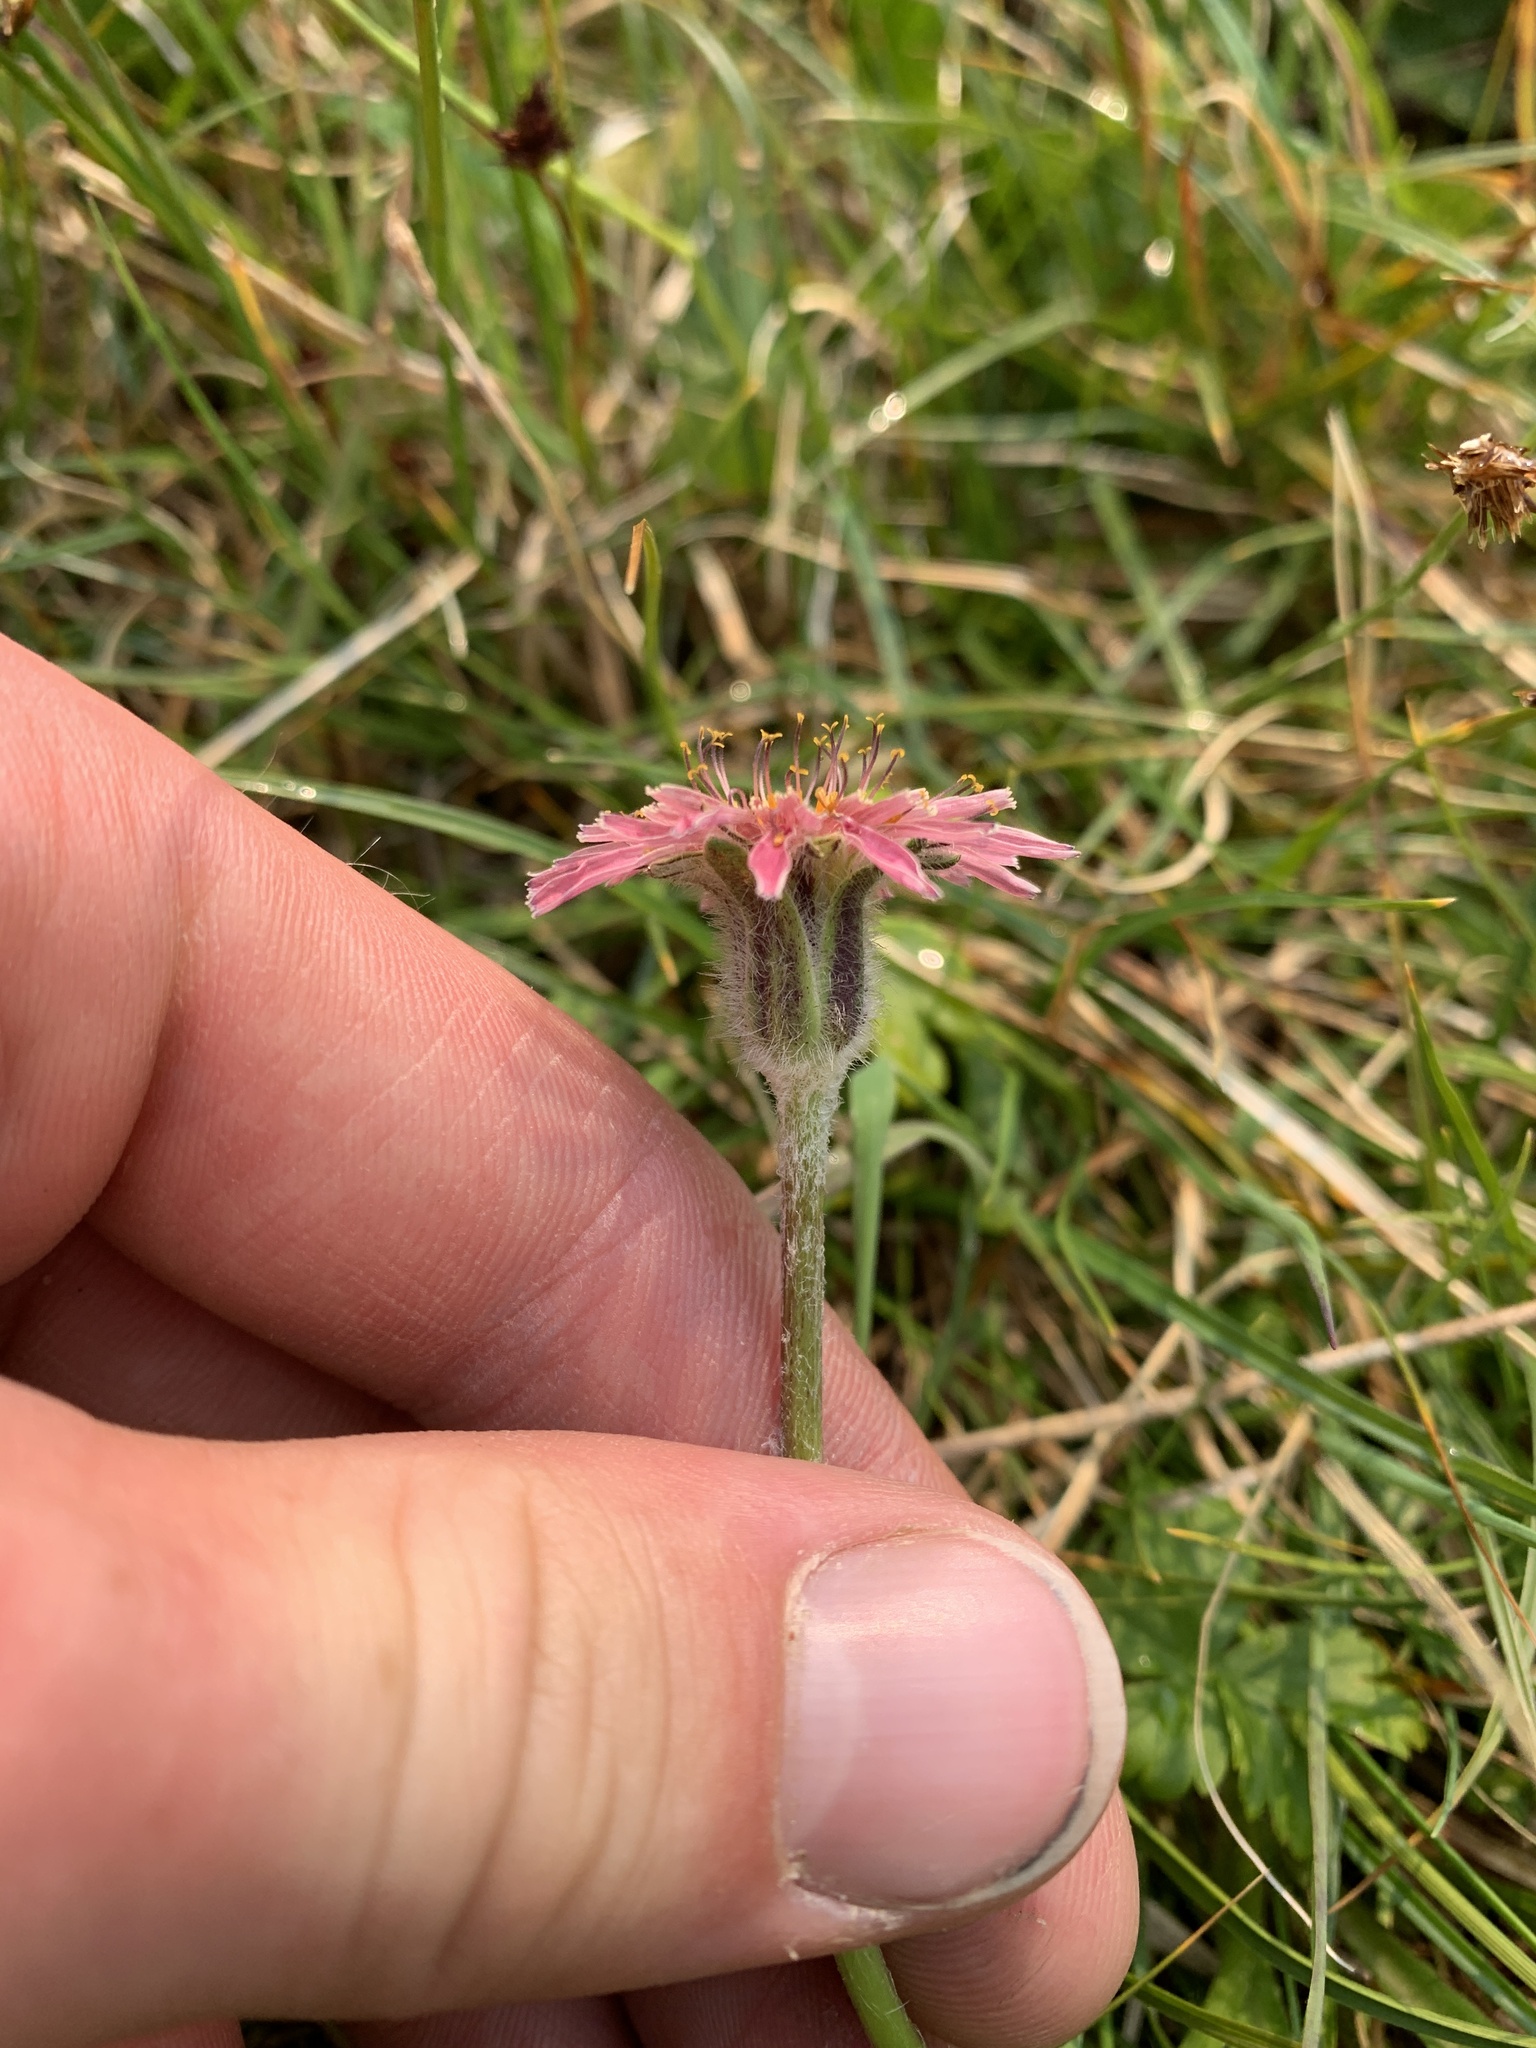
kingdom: Plantae
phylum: Tracheophyta
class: Magnoliopsida
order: Asterales
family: Asteraceae
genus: Agoseris
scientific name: Agoseris aurantiaca
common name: Mountain agoseris
